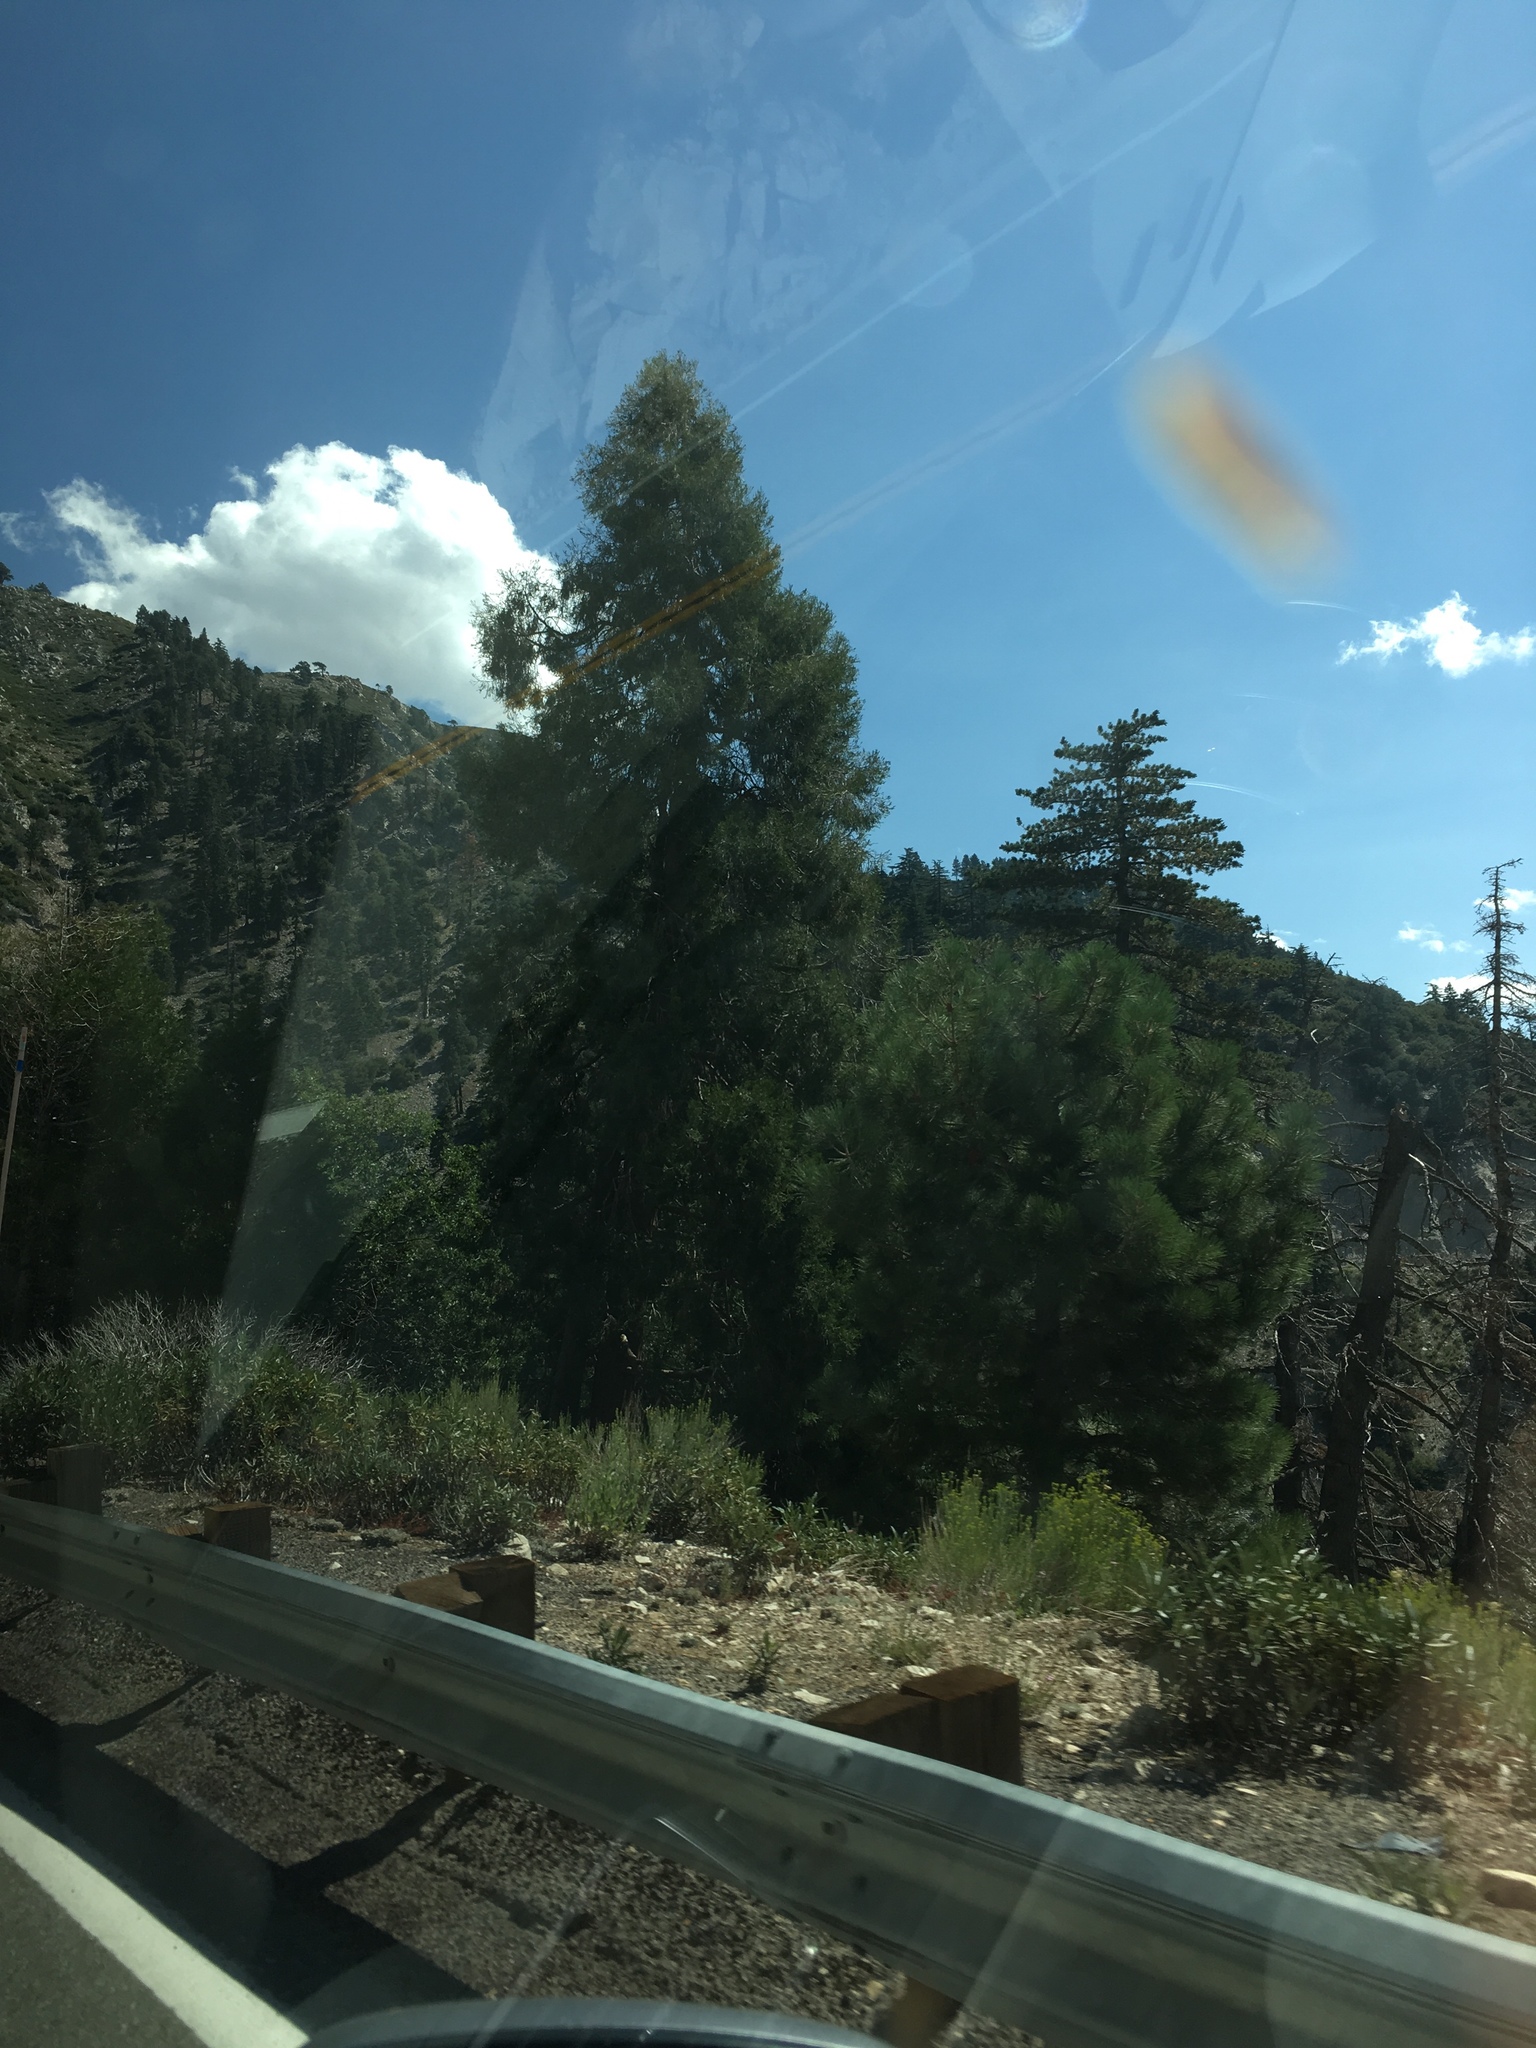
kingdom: Plantae
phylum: Tracheophyta
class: Pinopsida
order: Pinales
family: Cupressaceae
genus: Calocedrus
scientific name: Calocedrus decurrens
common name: Californian incense-cedar
